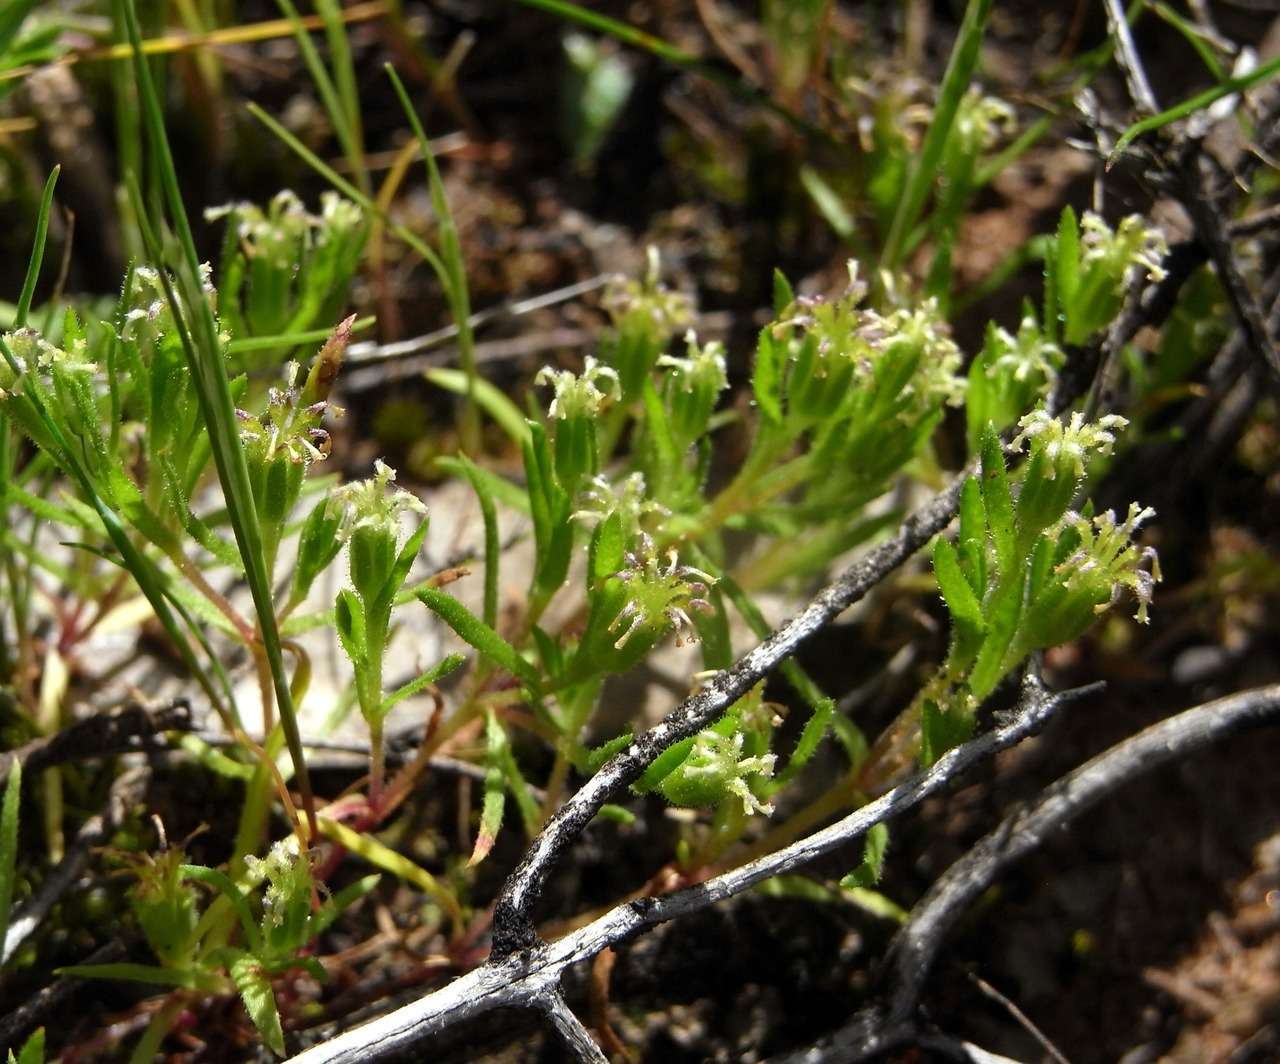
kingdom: Plantae
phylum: Tracheophyta
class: Magnoliopsida
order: Asterales
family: Asteraceae
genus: Millotia
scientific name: Millotia muelleri
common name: Common bow-flower
